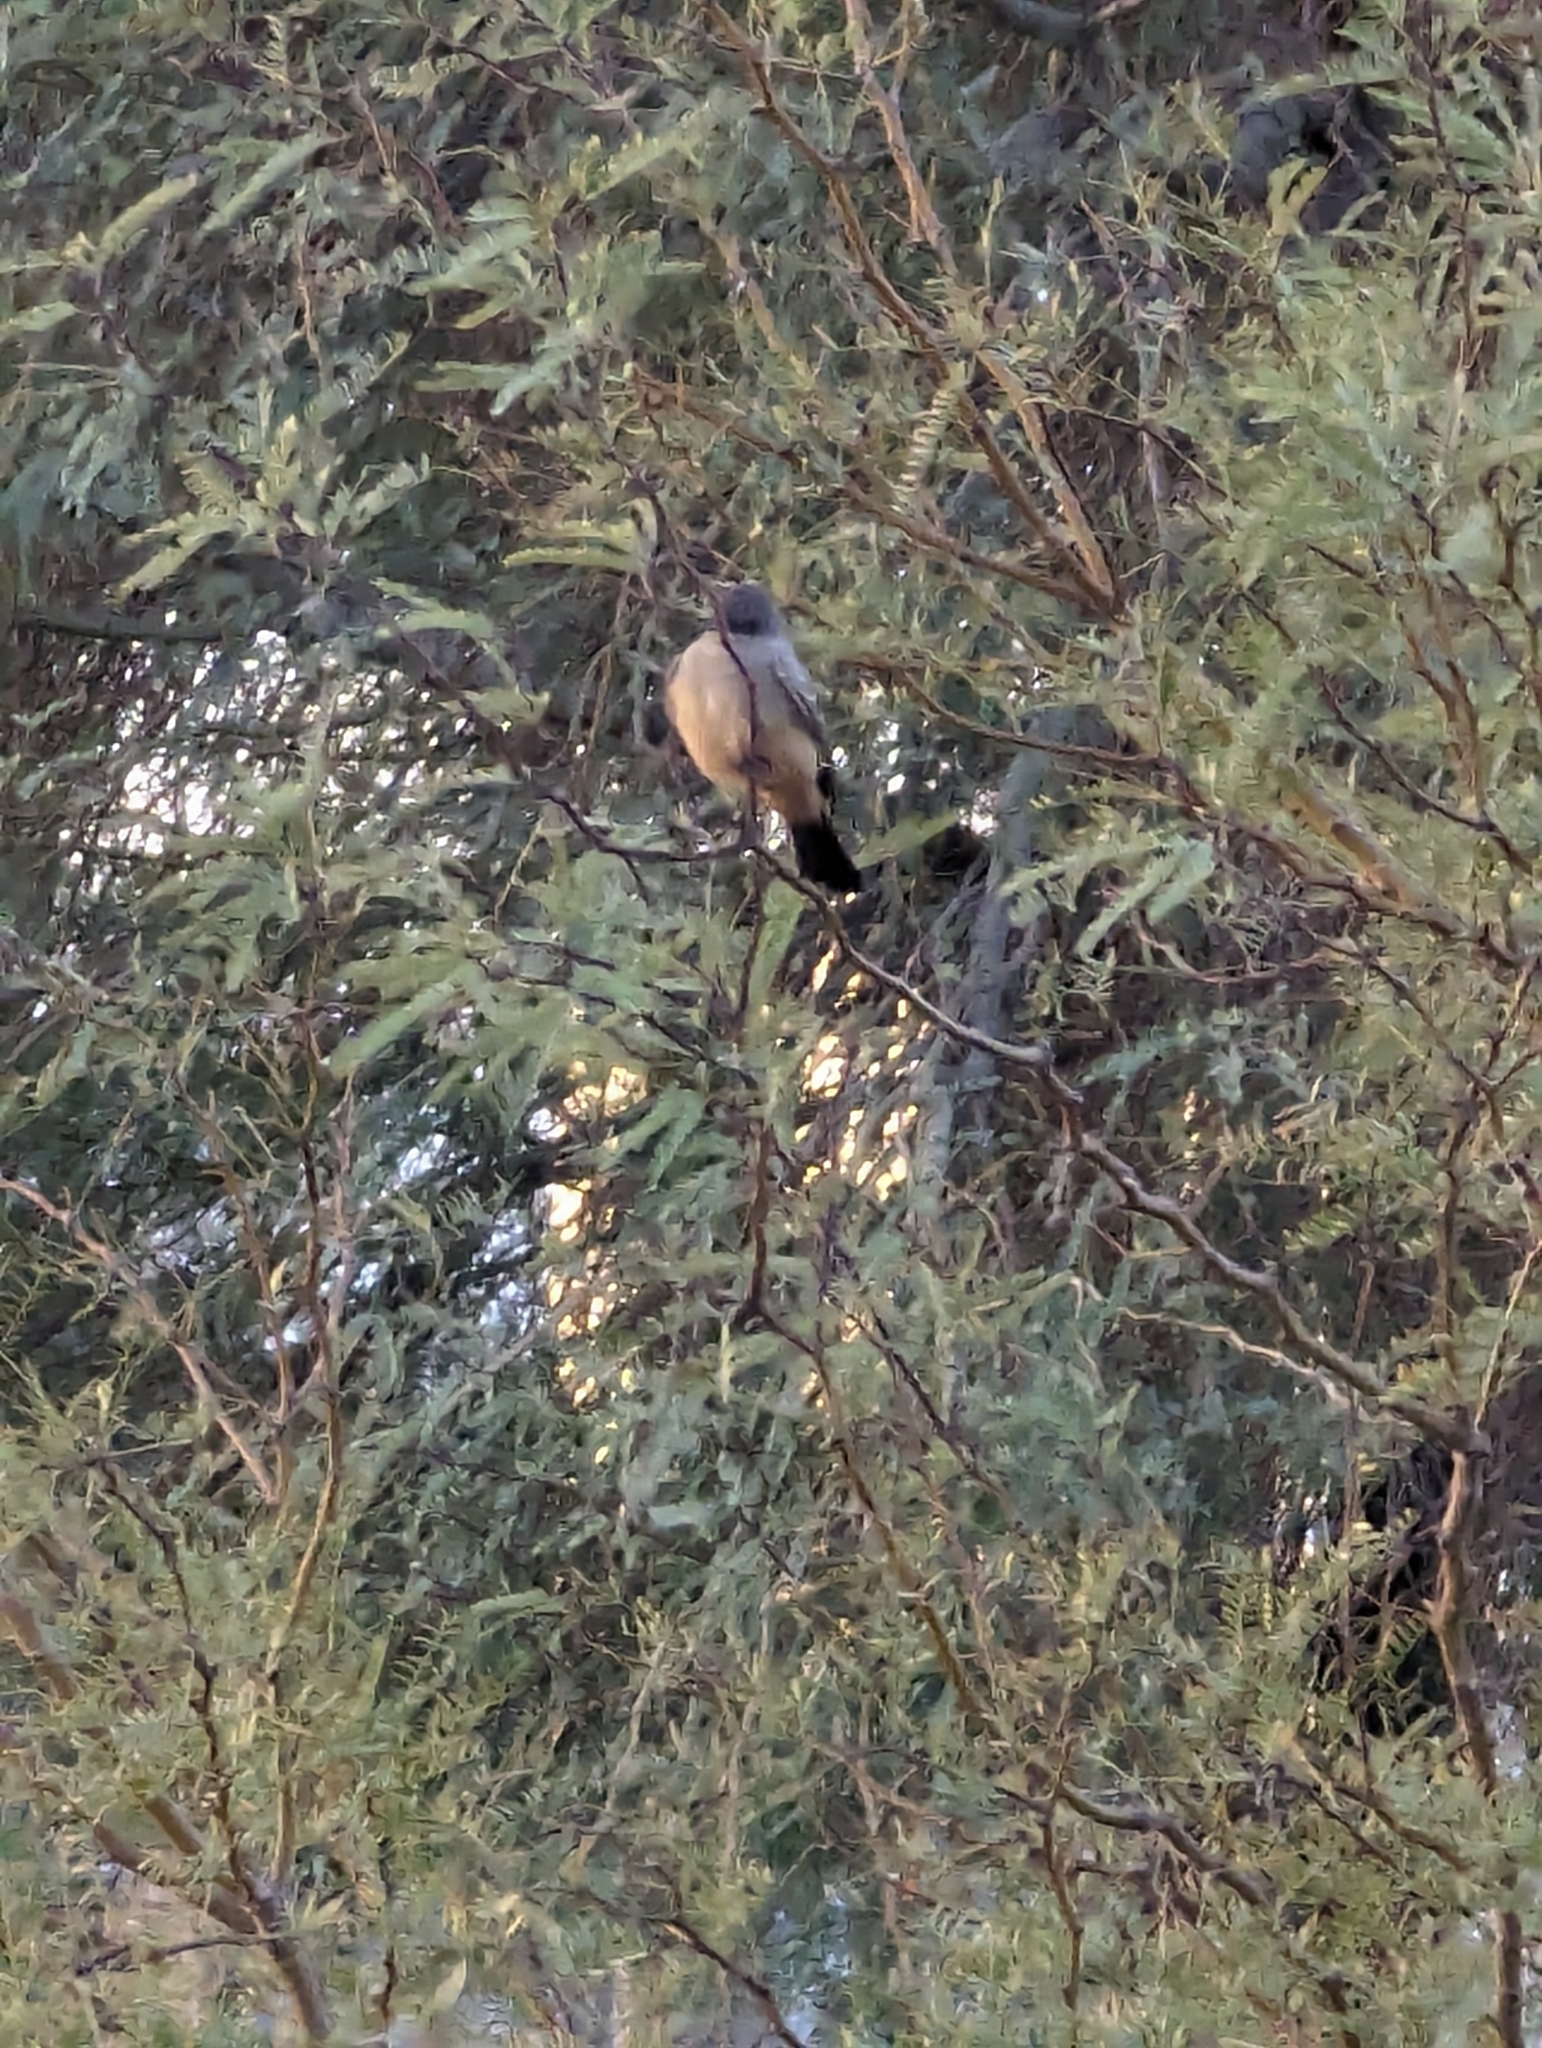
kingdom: Animalia
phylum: Chordata
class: Aves
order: Passeriformes
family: Tyrannidae
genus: Sayornis
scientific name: Sayornis saya
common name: Say's phoebe
